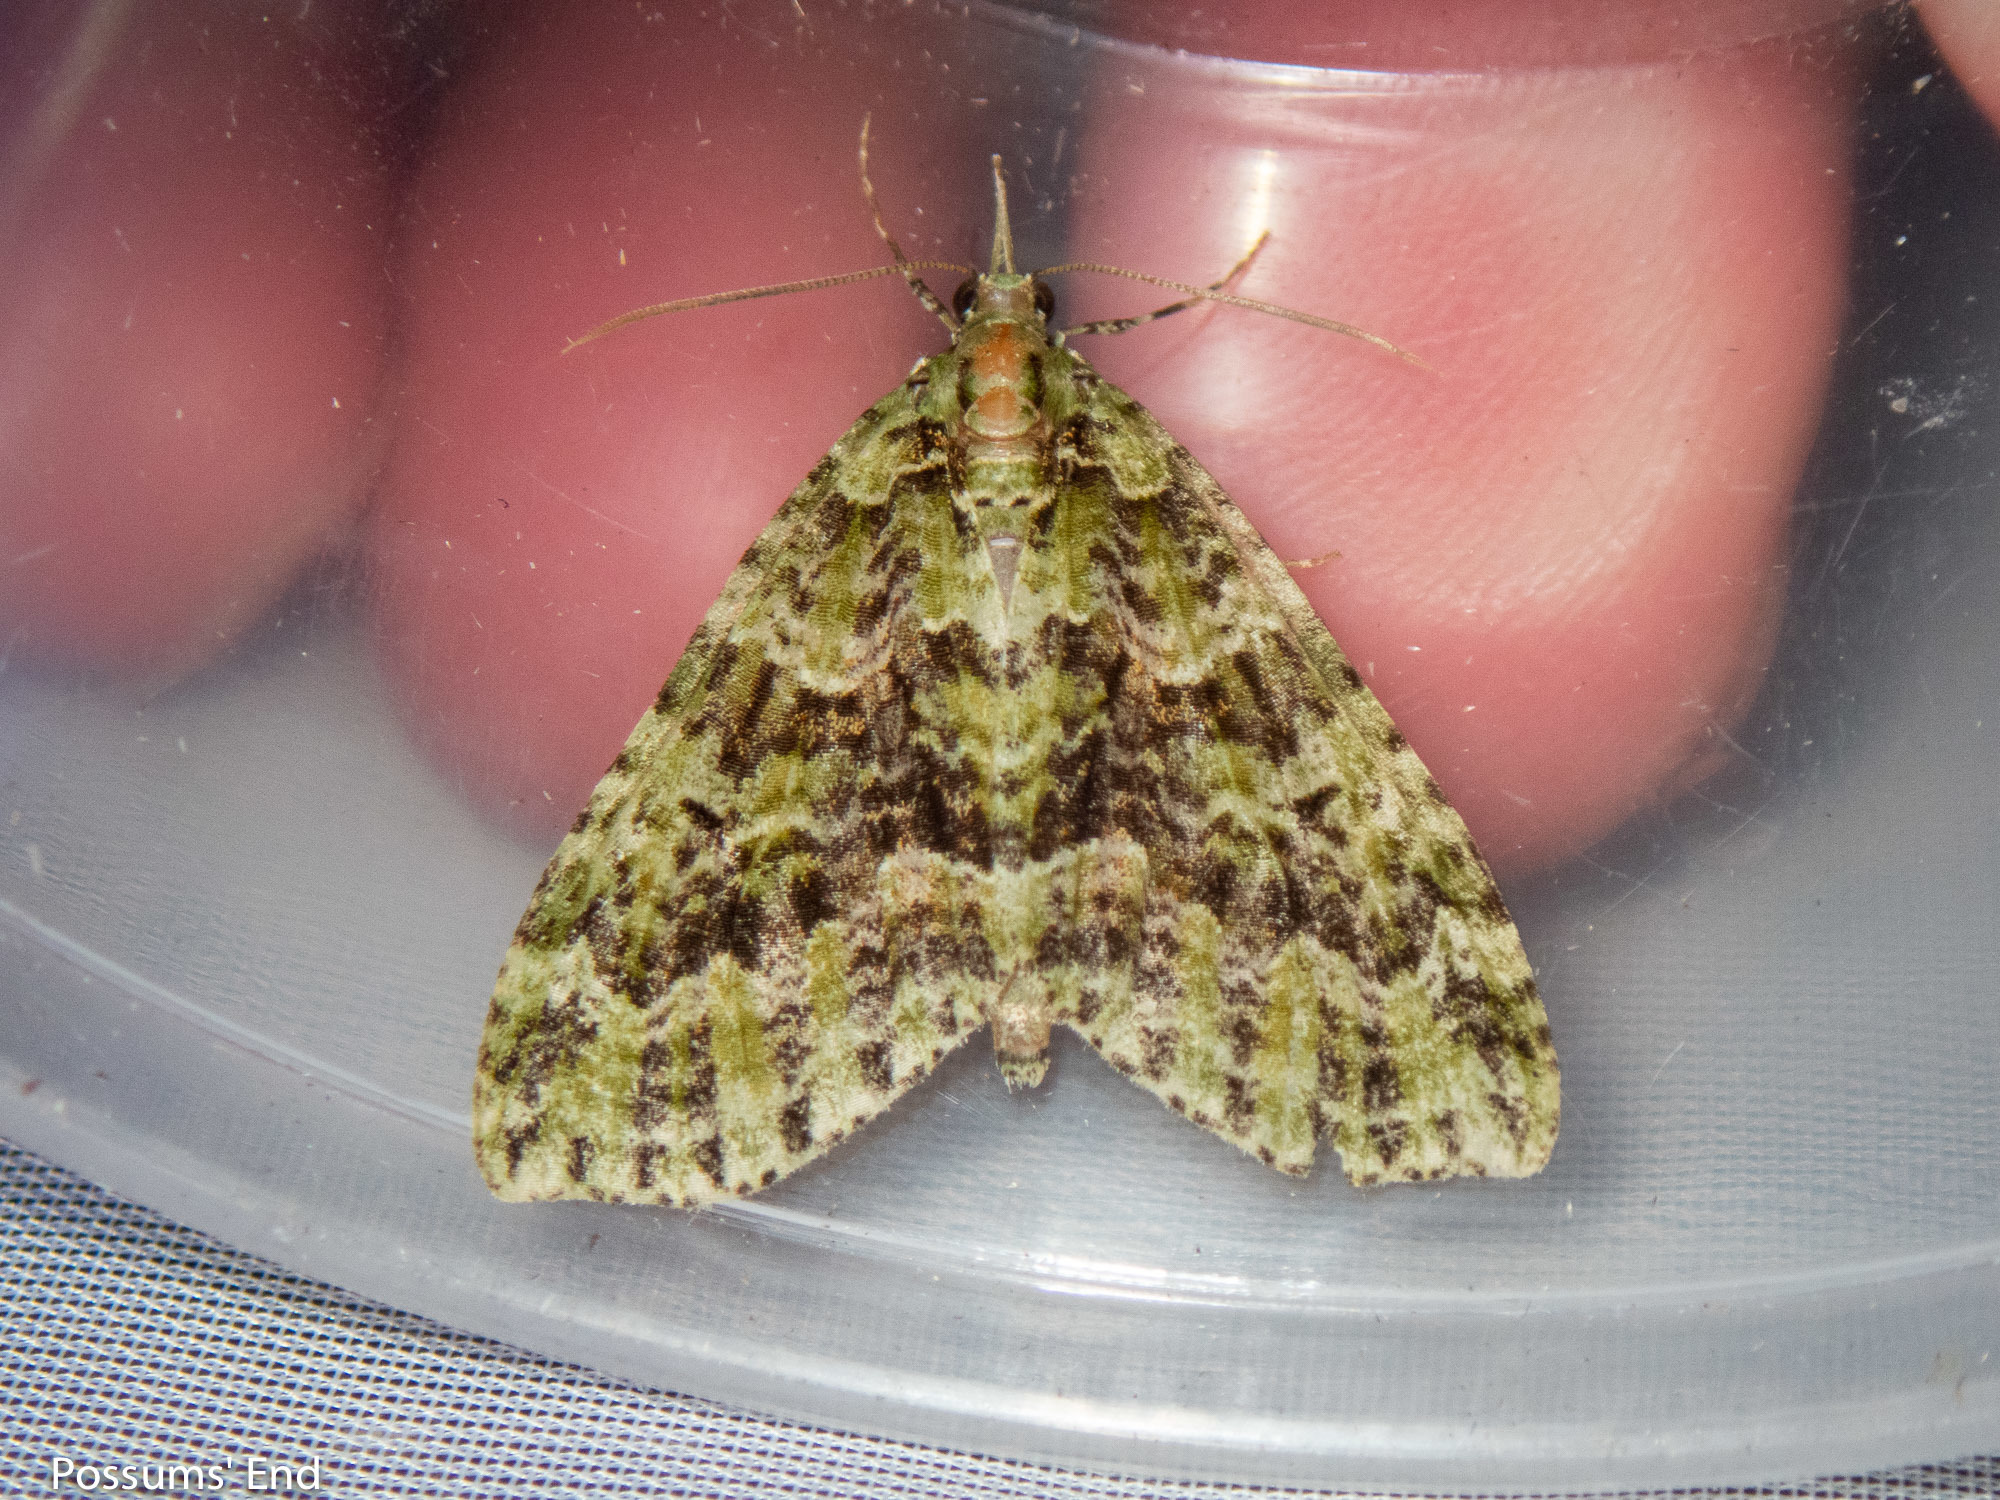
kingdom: Animalia
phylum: Arthropoda
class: Insecta
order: Lepidoptera
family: Geometridae
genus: Tatosoma
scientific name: Tatosoma tipulata
